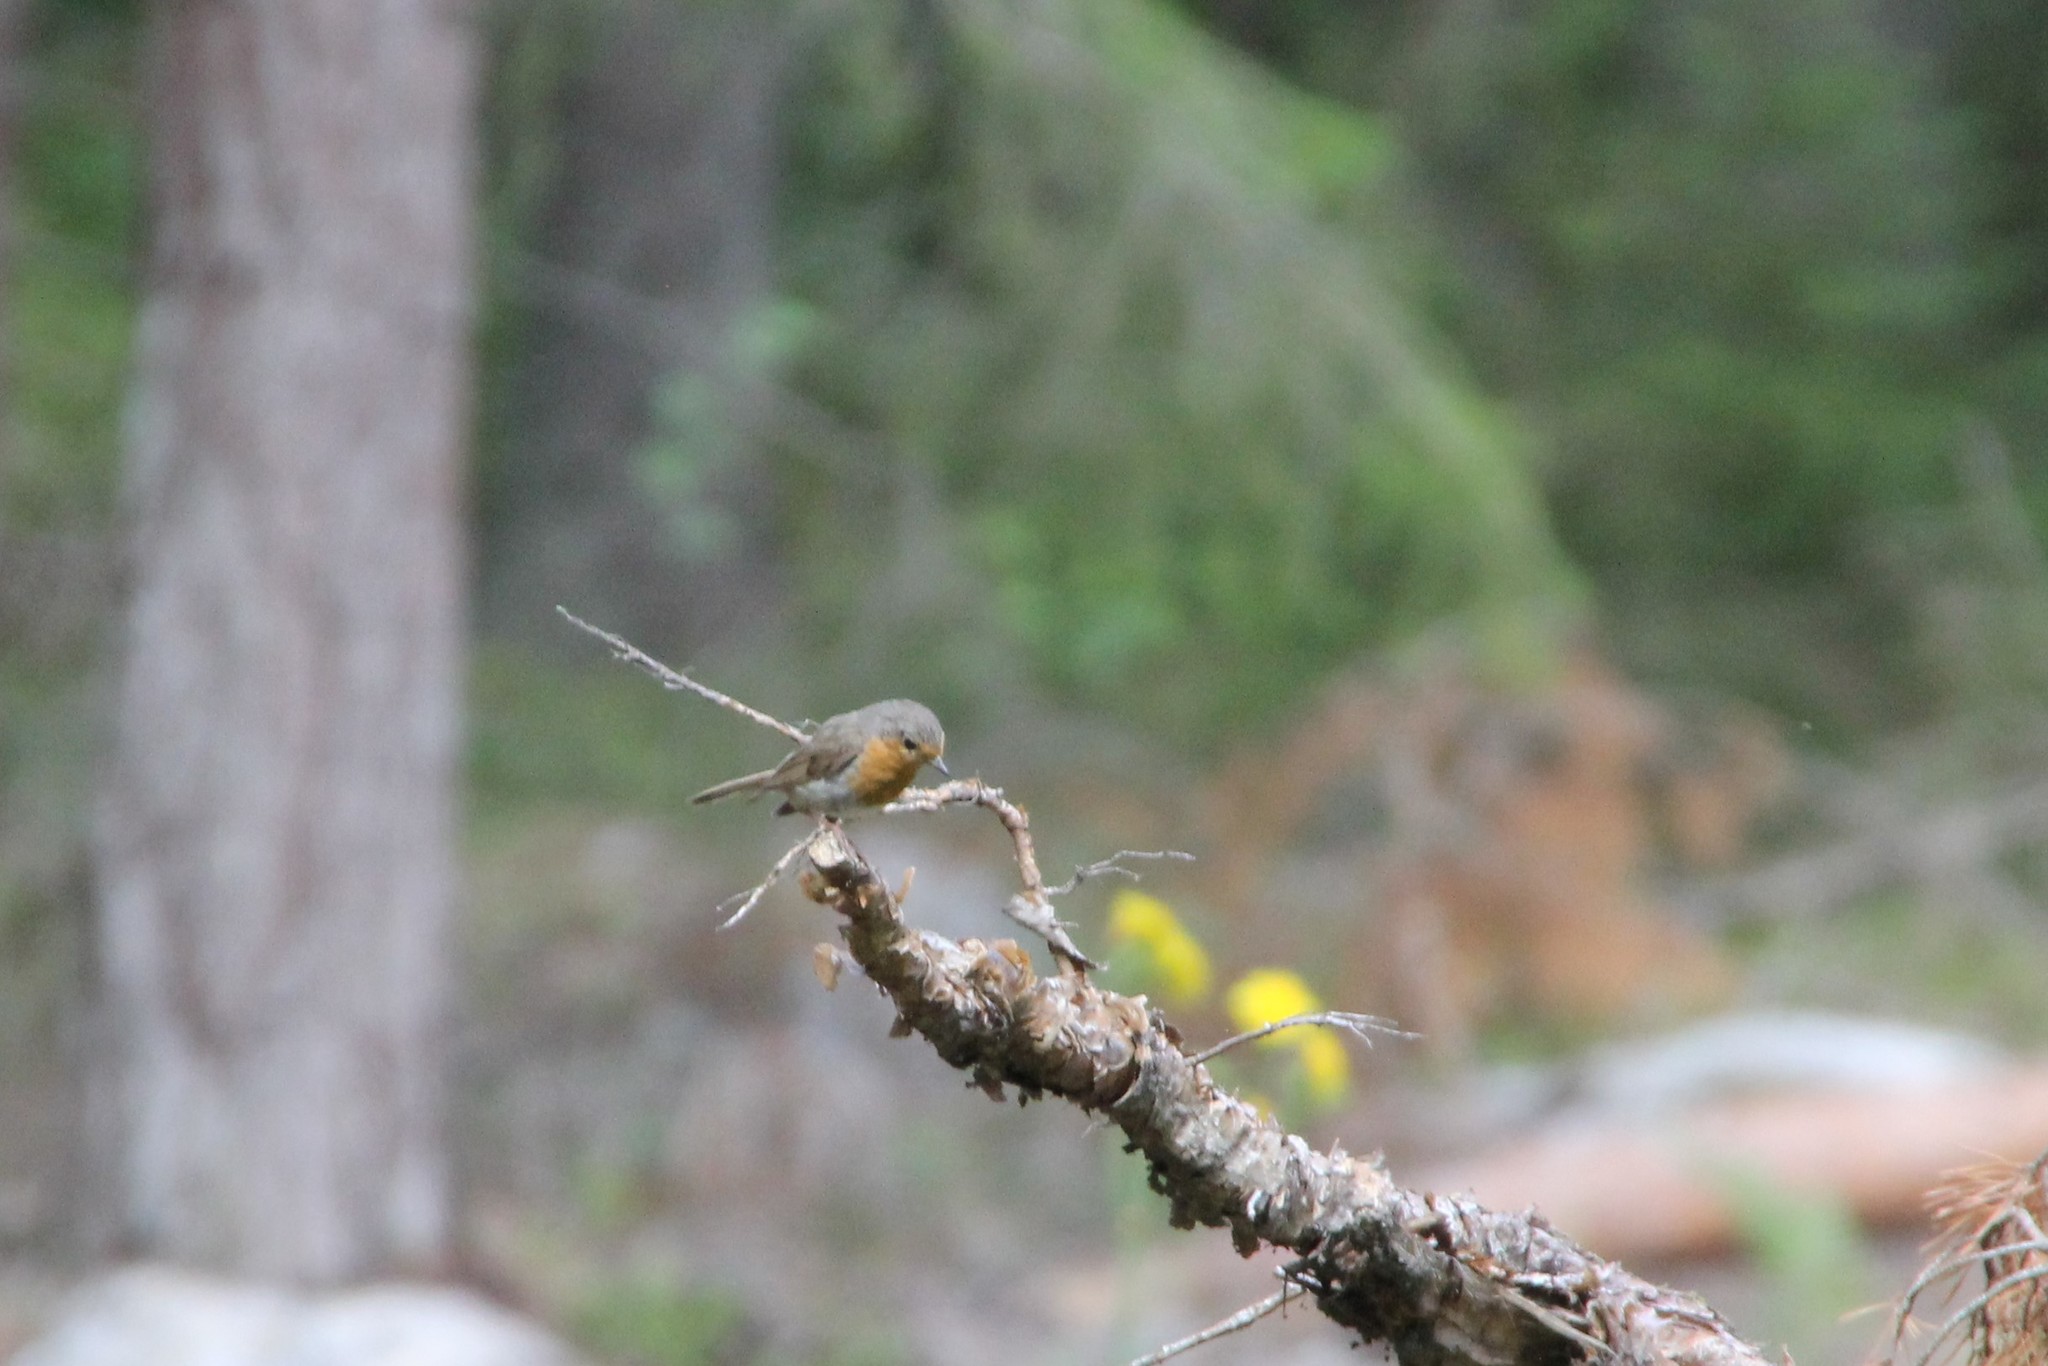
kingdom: Animalia
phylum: Chordata
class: Aves
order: Passeriformes
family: Muscicapidae
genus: Erithacus
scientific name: Erithacus rubecula
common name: European robin
